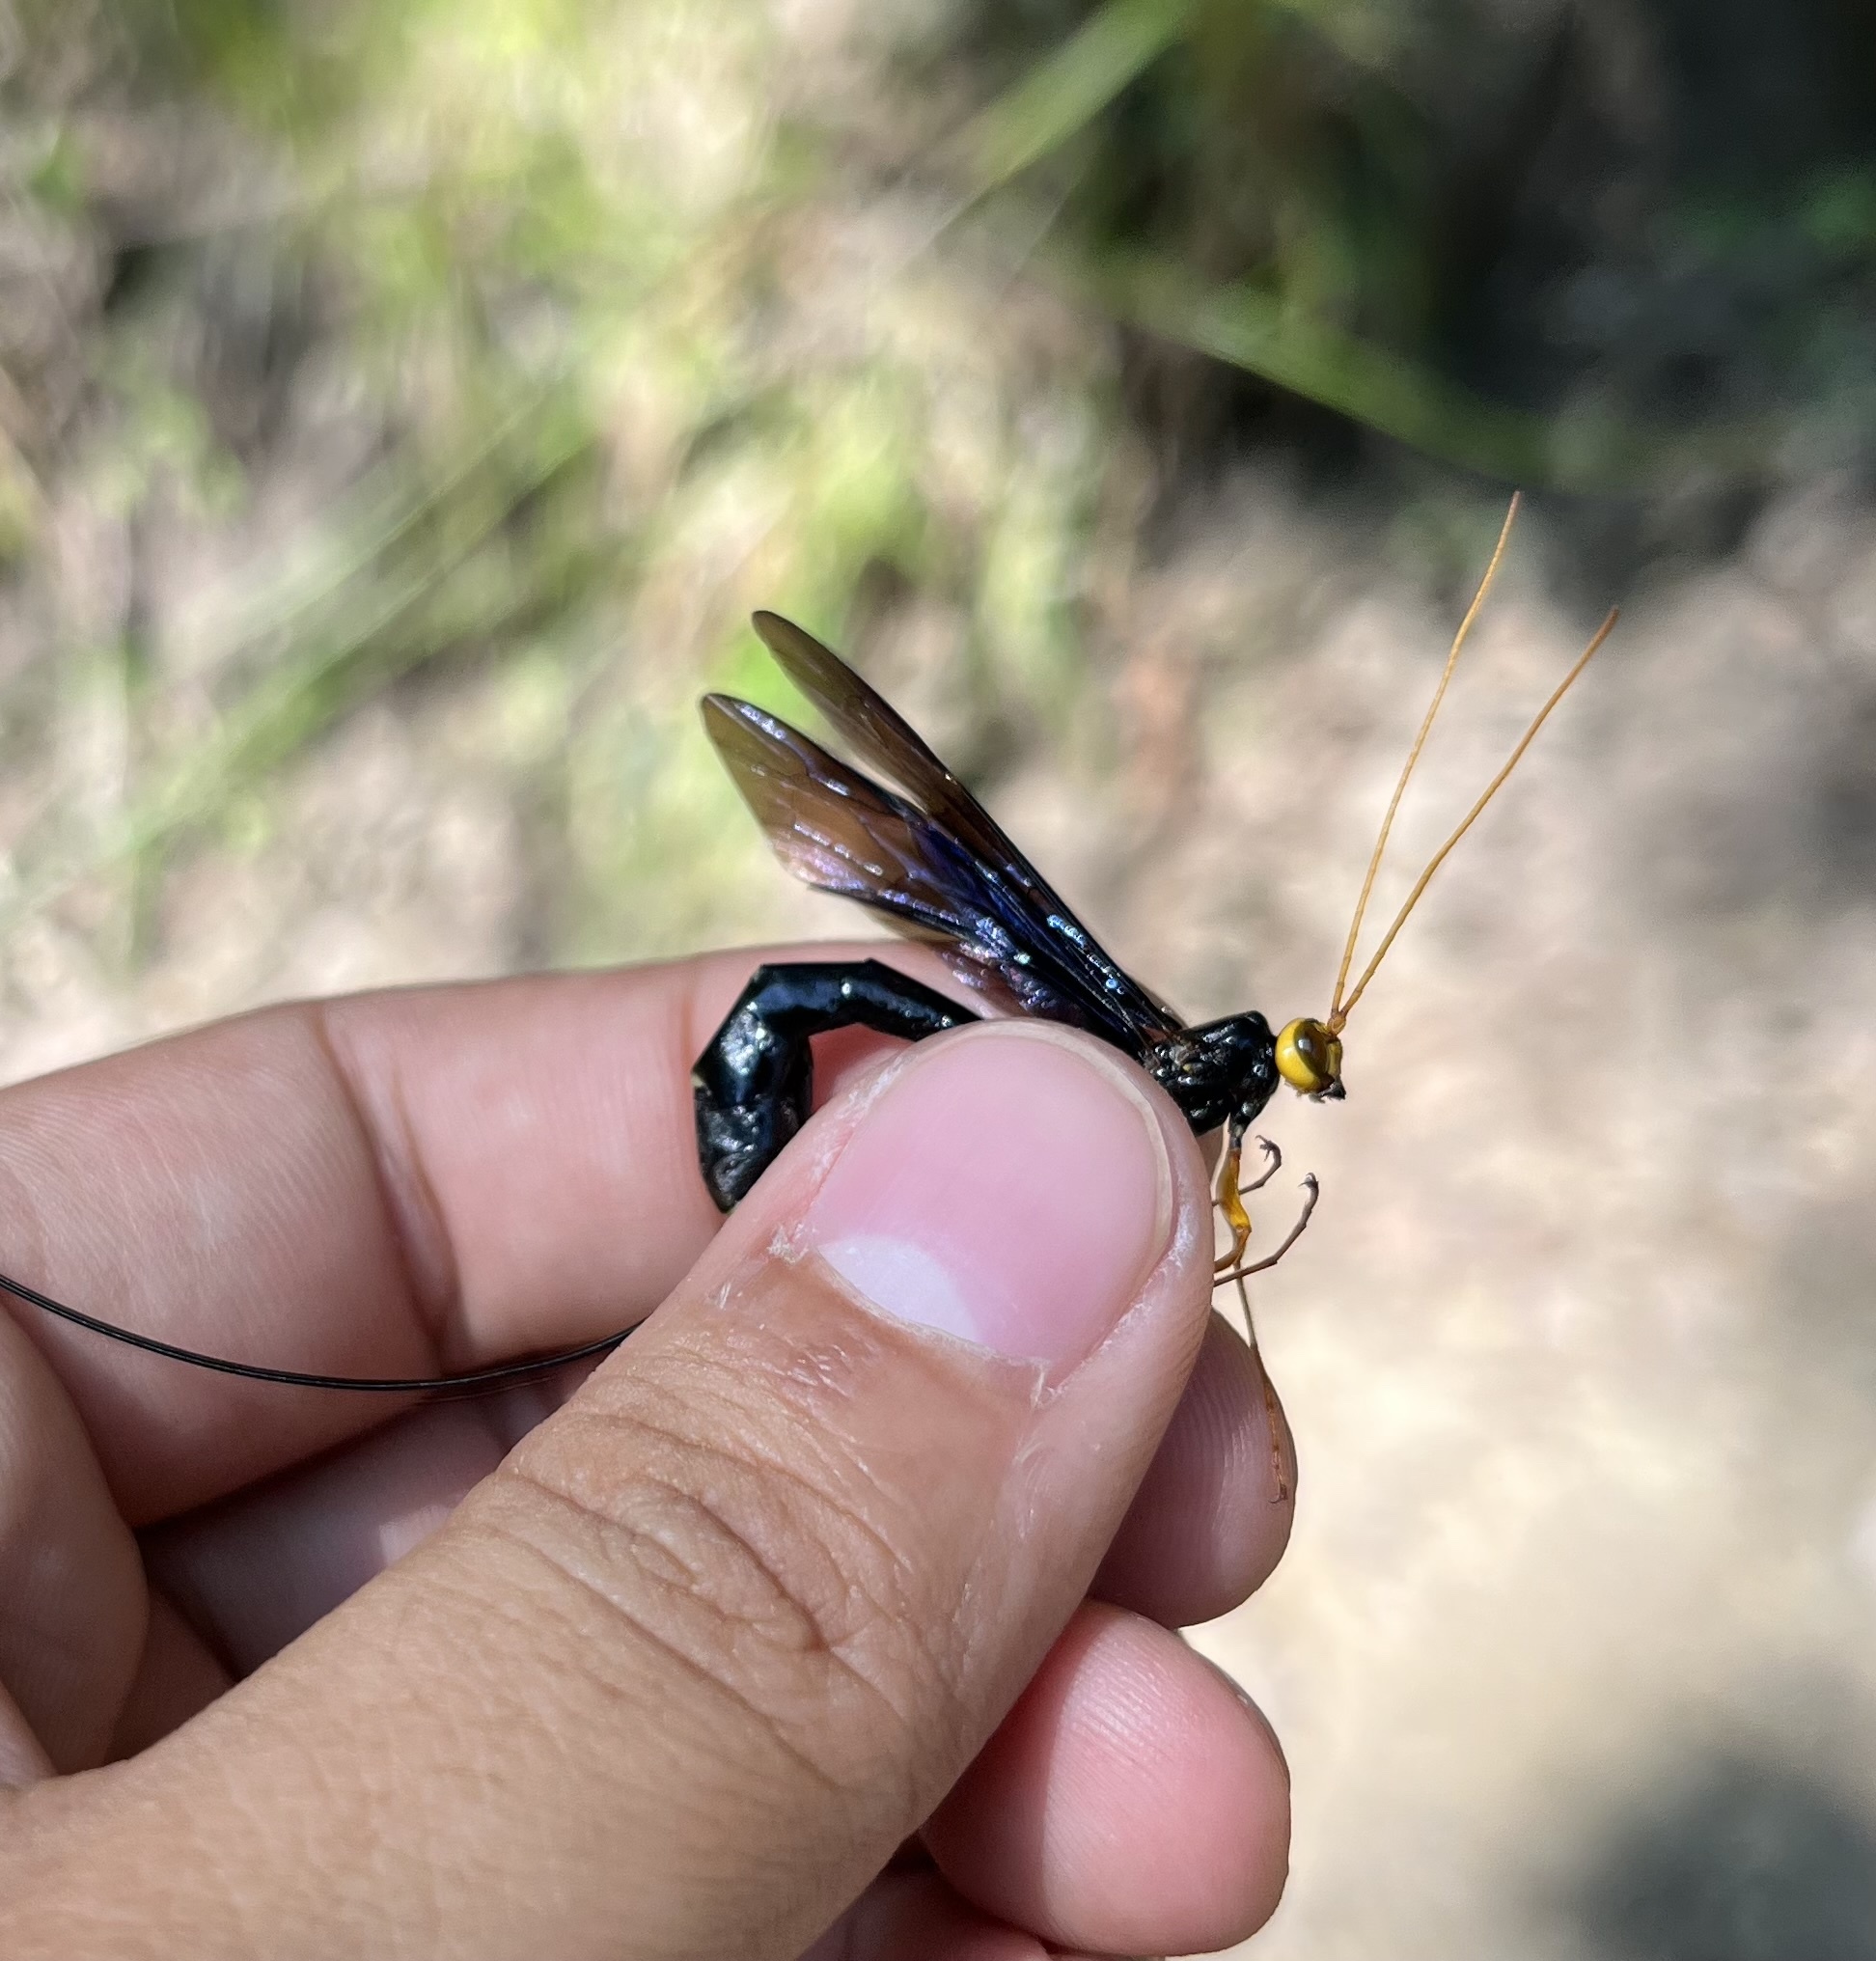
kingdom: Animalia
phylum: Arthropoda
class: Insecta
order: Hymenoptera
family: Ichneumonidae
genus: Megarhyssa
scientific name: Megarhyssa atrata
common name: Black giant ichneumonid wasp
